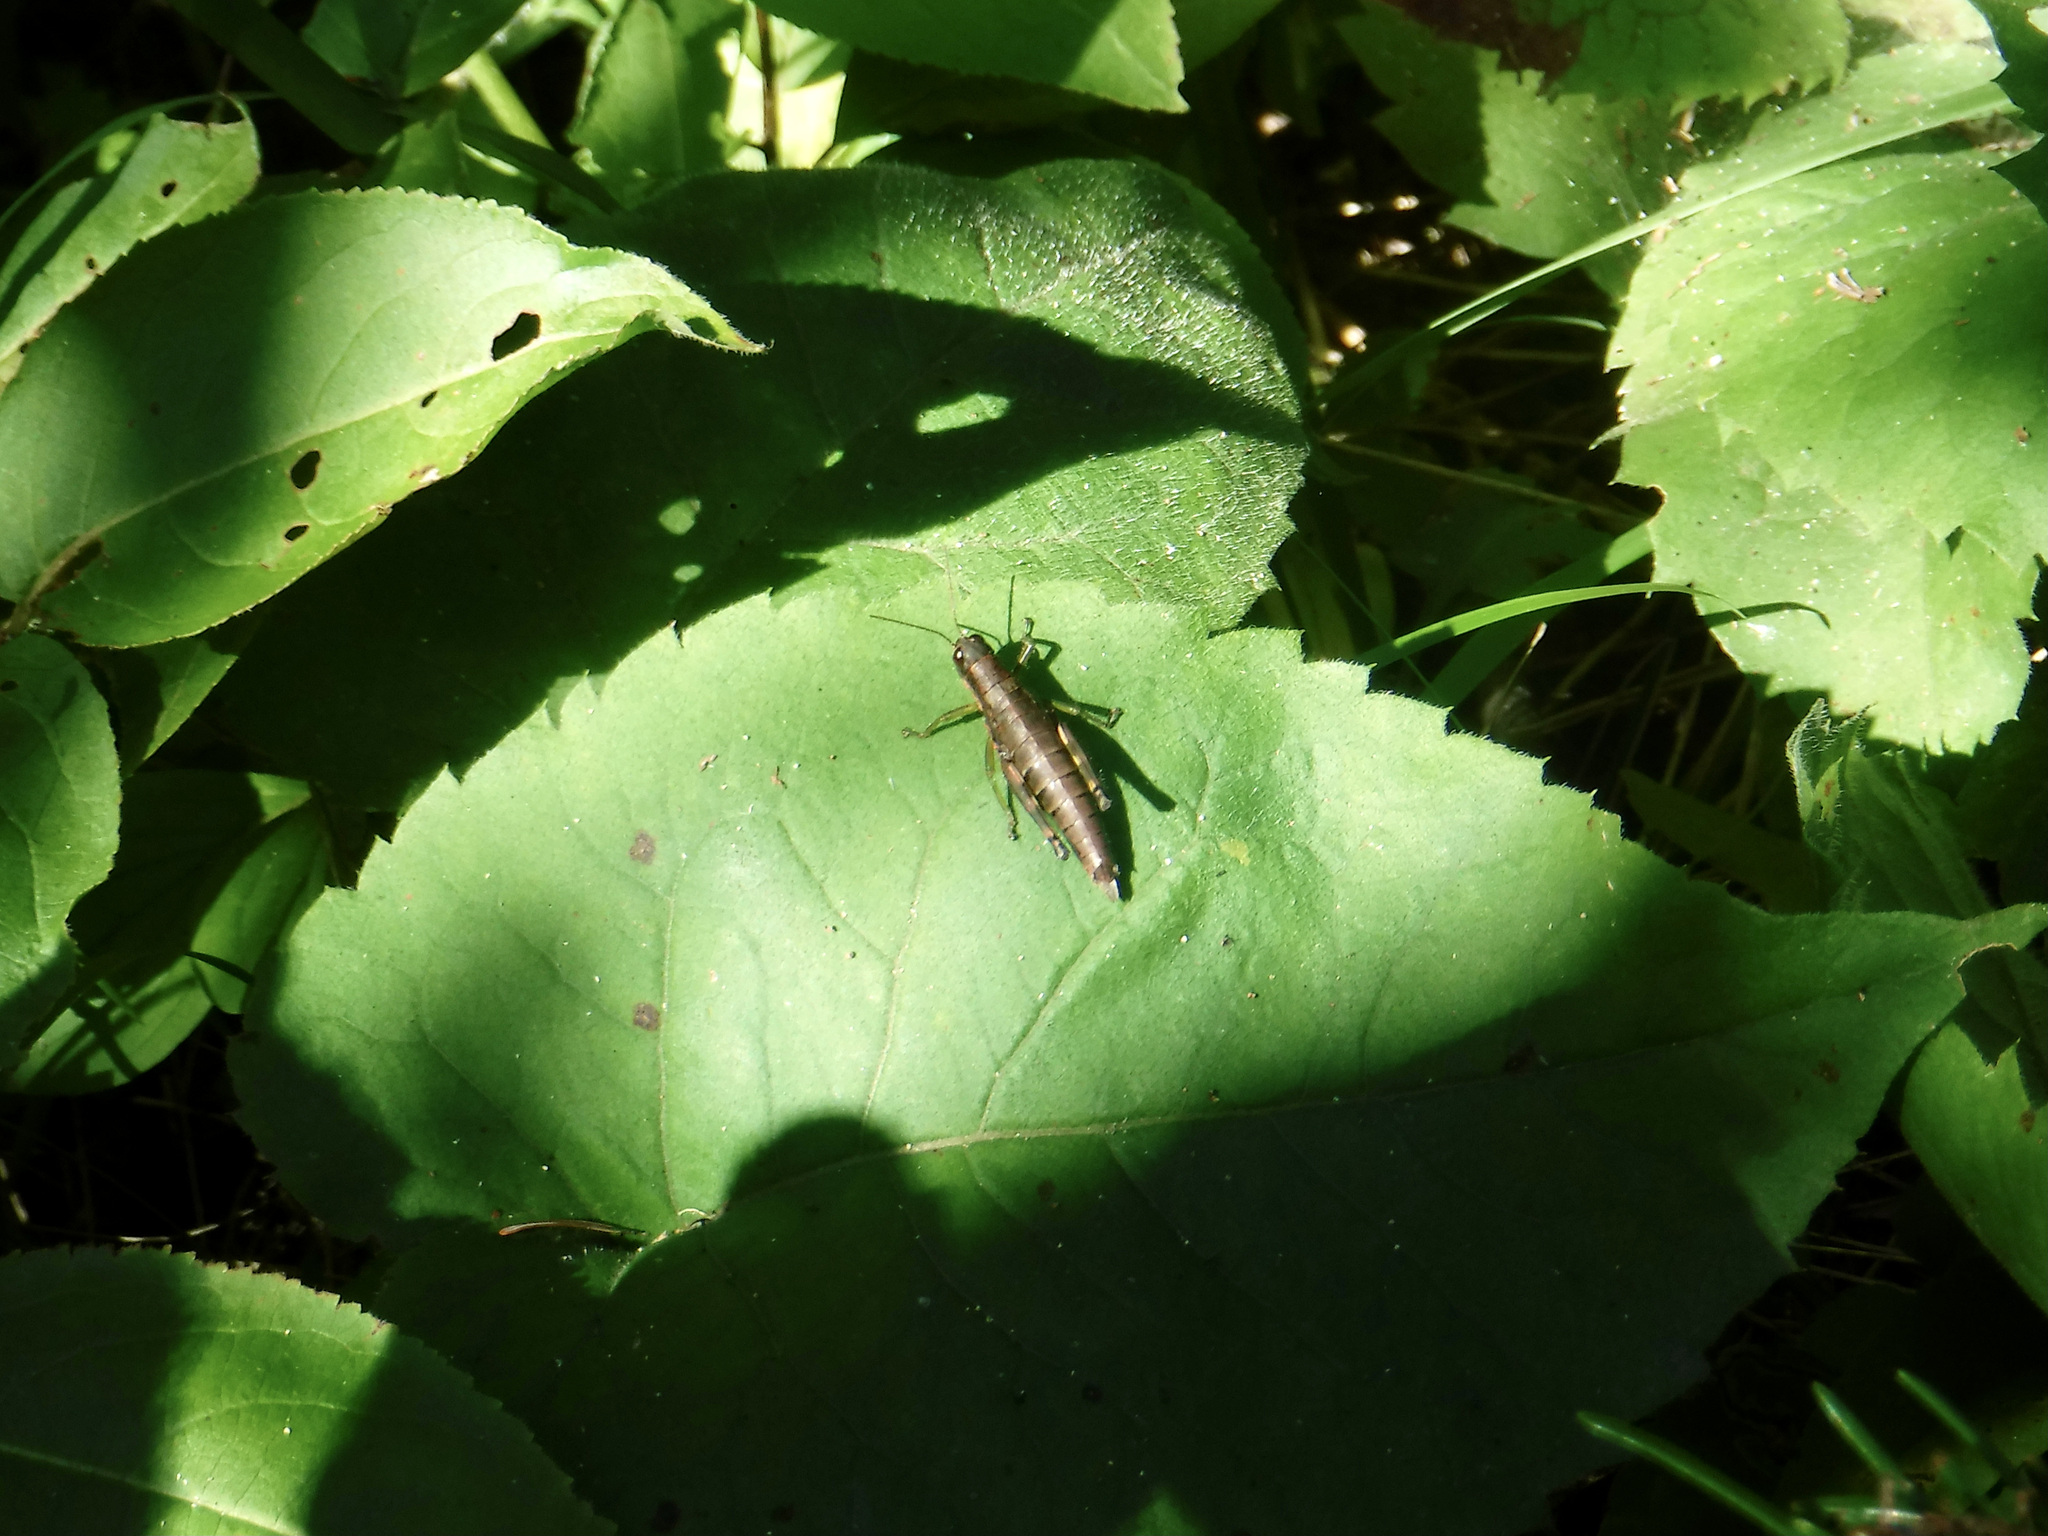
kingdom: Animalia
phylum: Arthropoda
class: Insecta
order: Orthoptera
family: Acrididae
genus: Booneacris
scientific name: Booneacris glacialis
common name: Wingless mountain grasshopper
